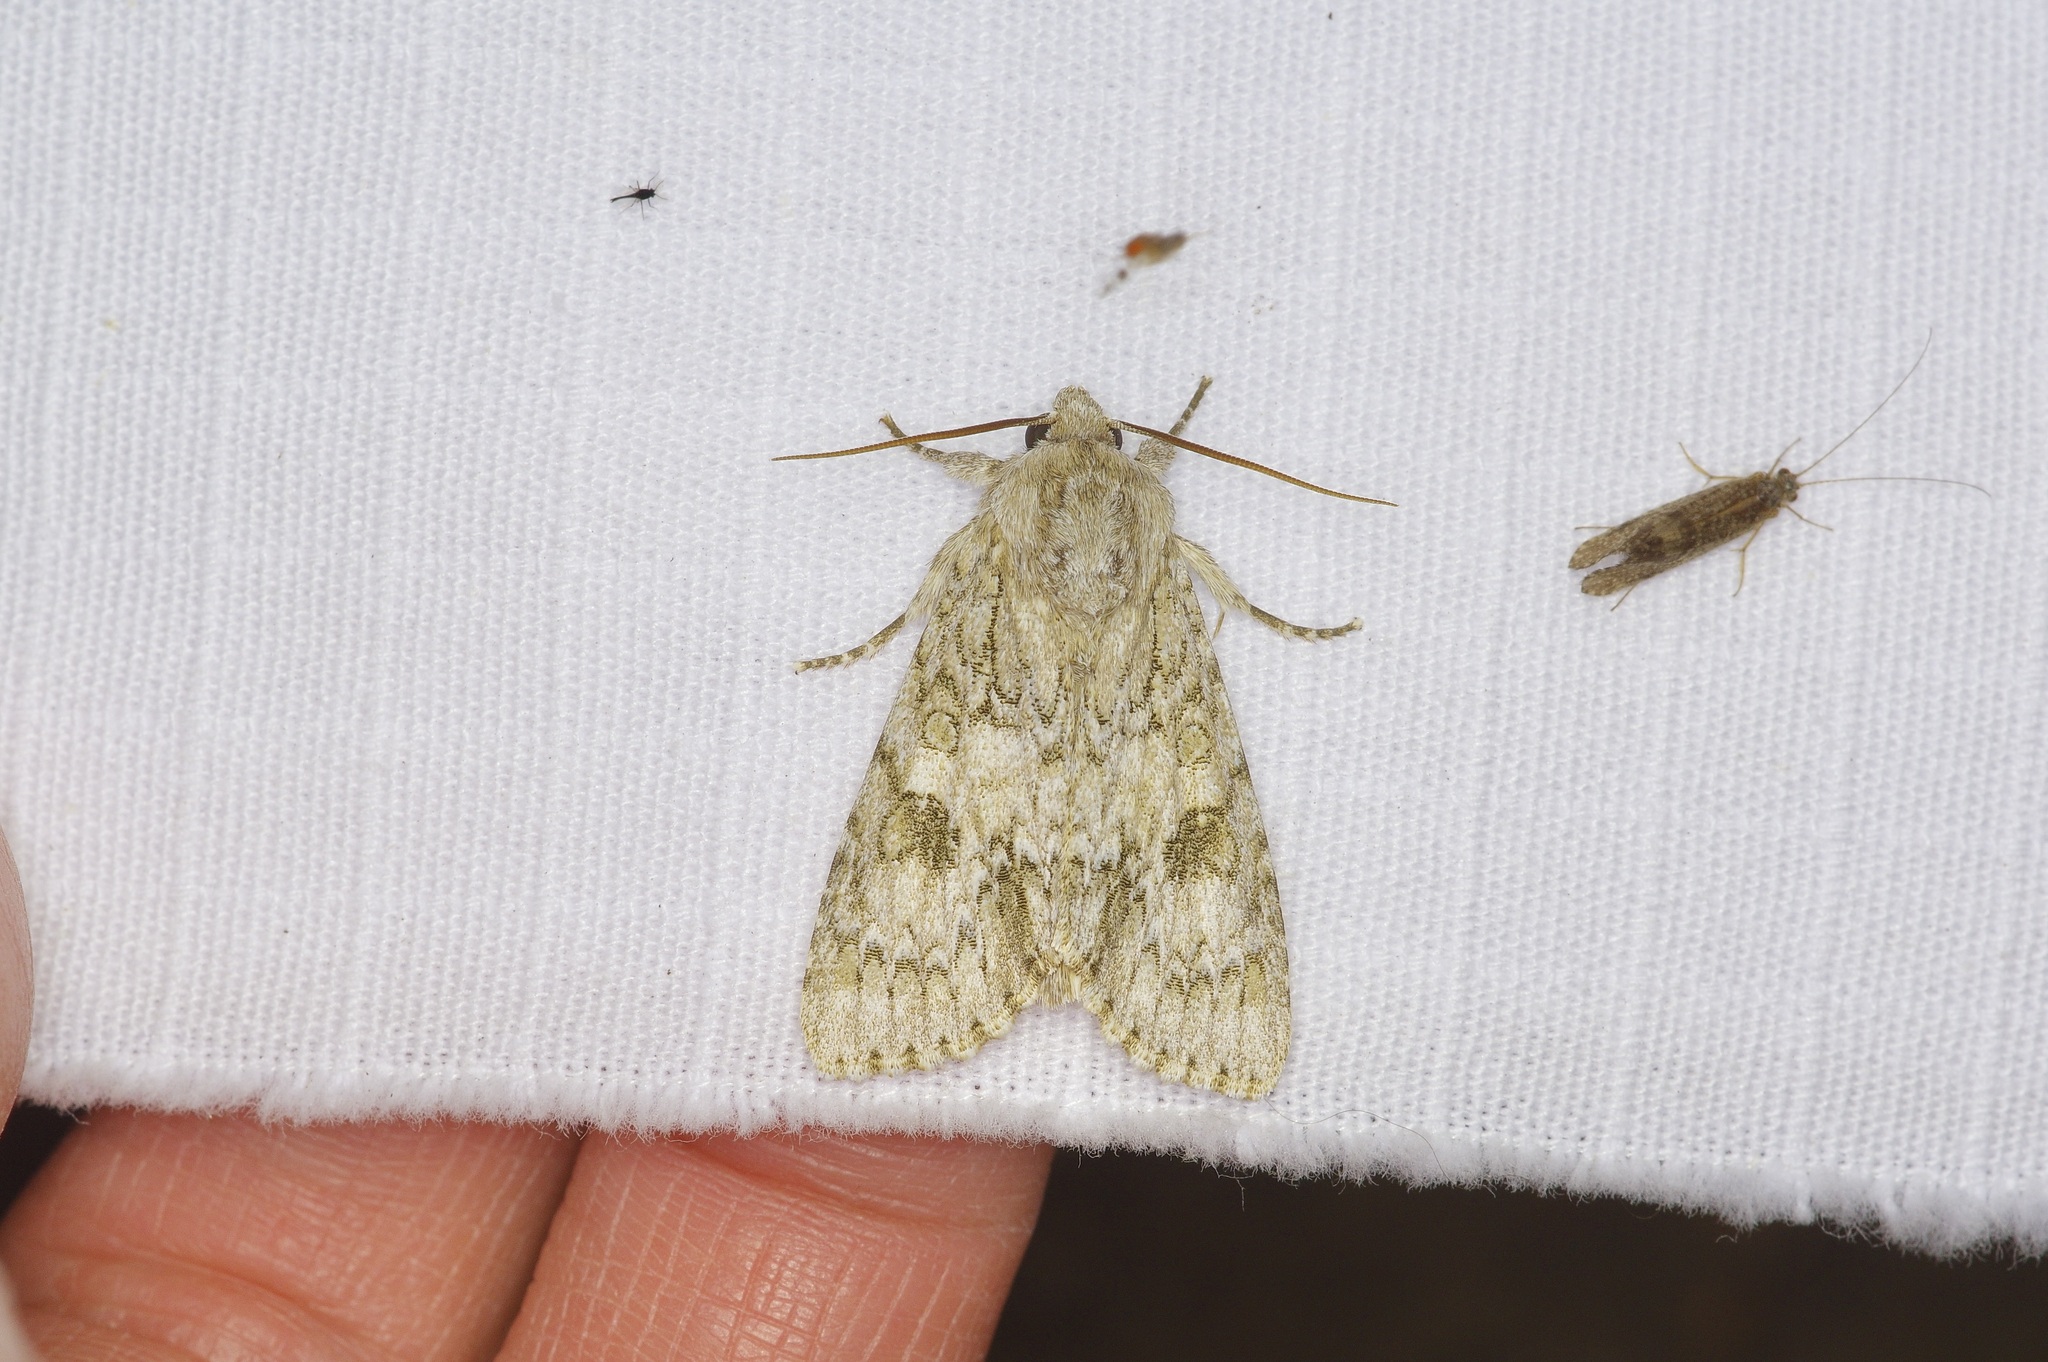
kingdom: Animalia
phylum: Arthropoda
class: Insecta
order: Lepidoptera
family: Noctuidae
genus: Acronicta
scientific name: Acronicta rubricoma
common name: Hackberry dagger
